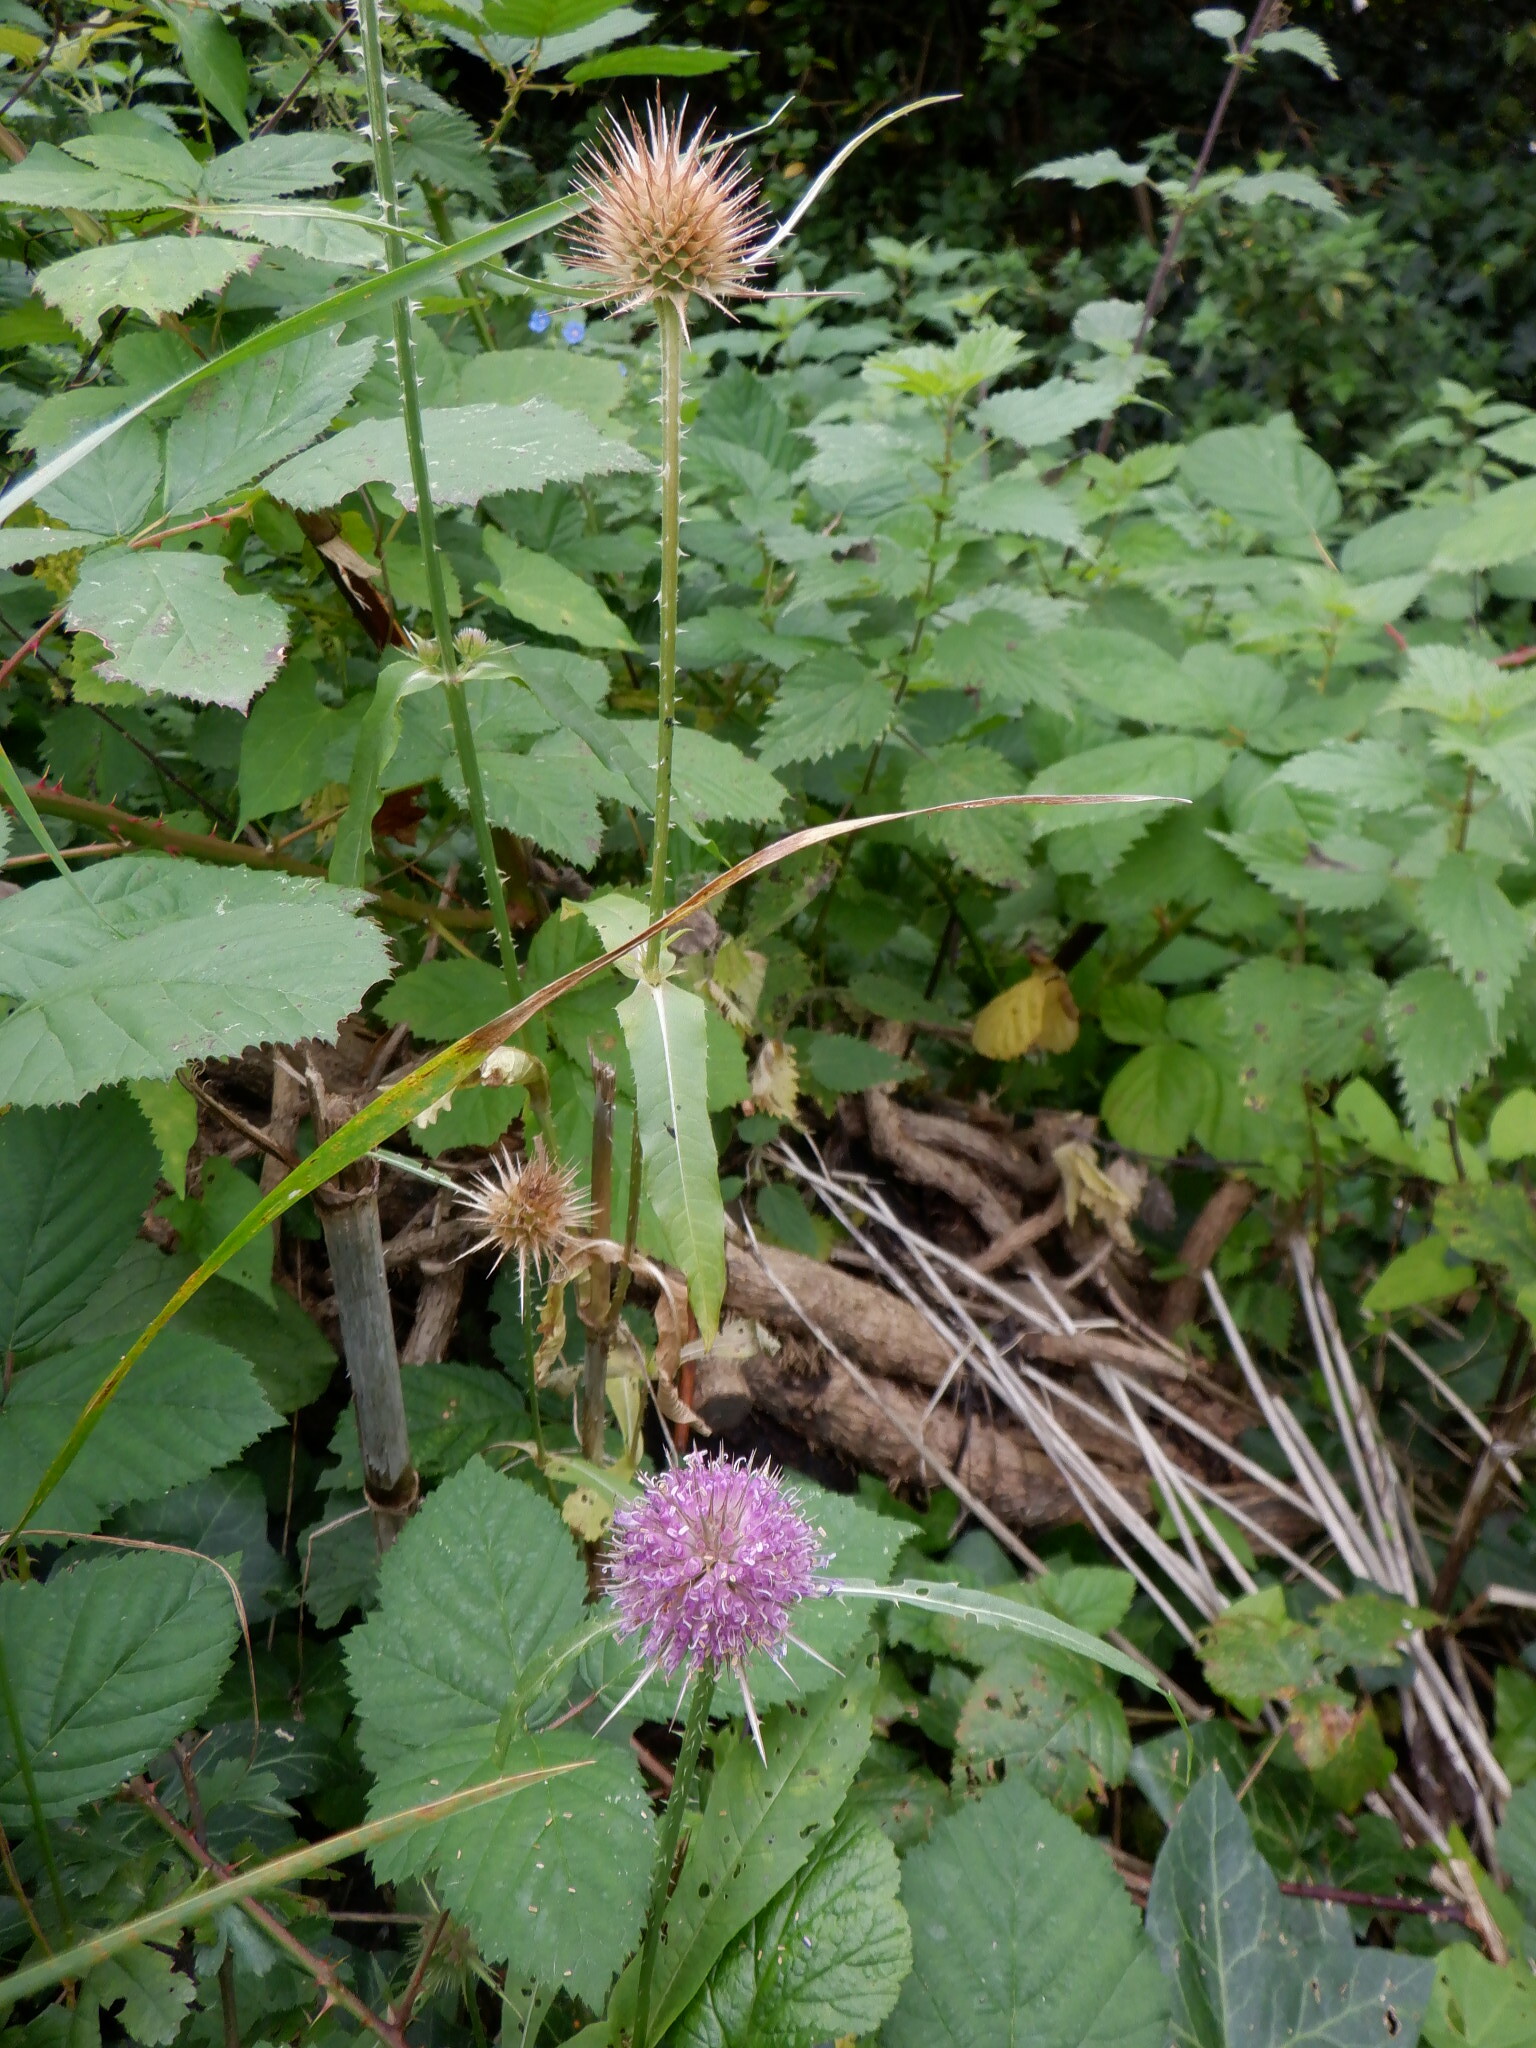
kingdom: Plantae
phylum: Tracheophyta
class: Magnoliopsida
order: Dipsacales
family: Caprifoliaceae
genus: Dipsacus
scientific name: Dipsacus fullonum
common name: Teasel
